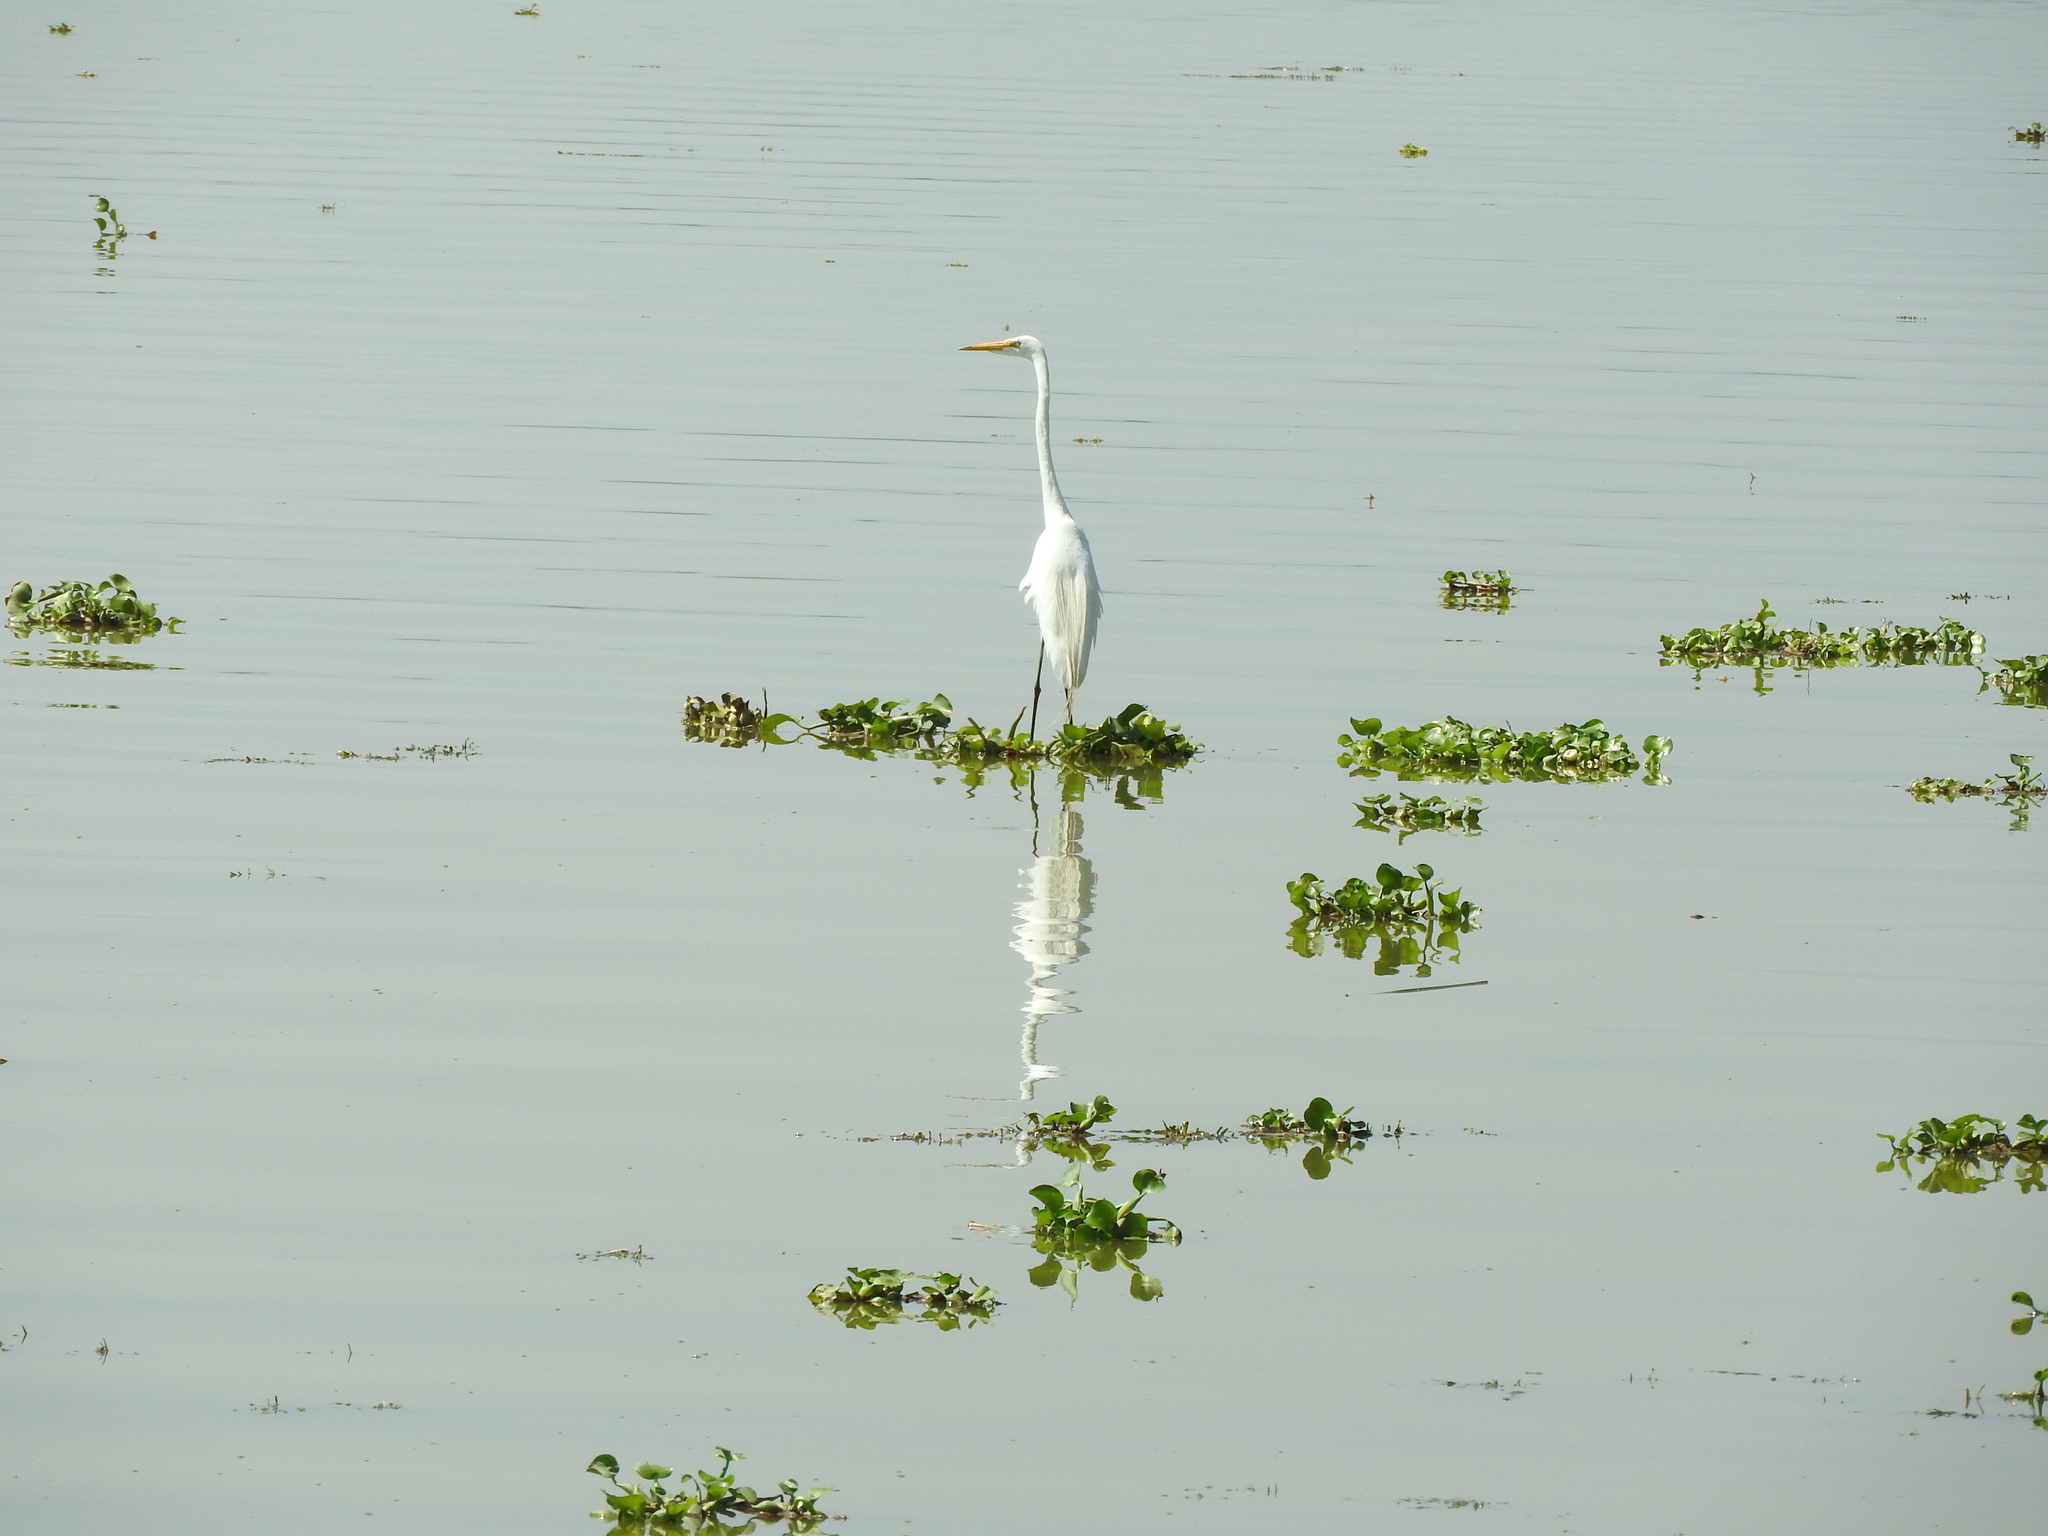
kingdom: Animalia
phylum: Chordata
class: Aves
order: Pelecaniformes
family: Ardeidae
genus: Ardea
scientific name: Ardea alba
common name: Great egret
